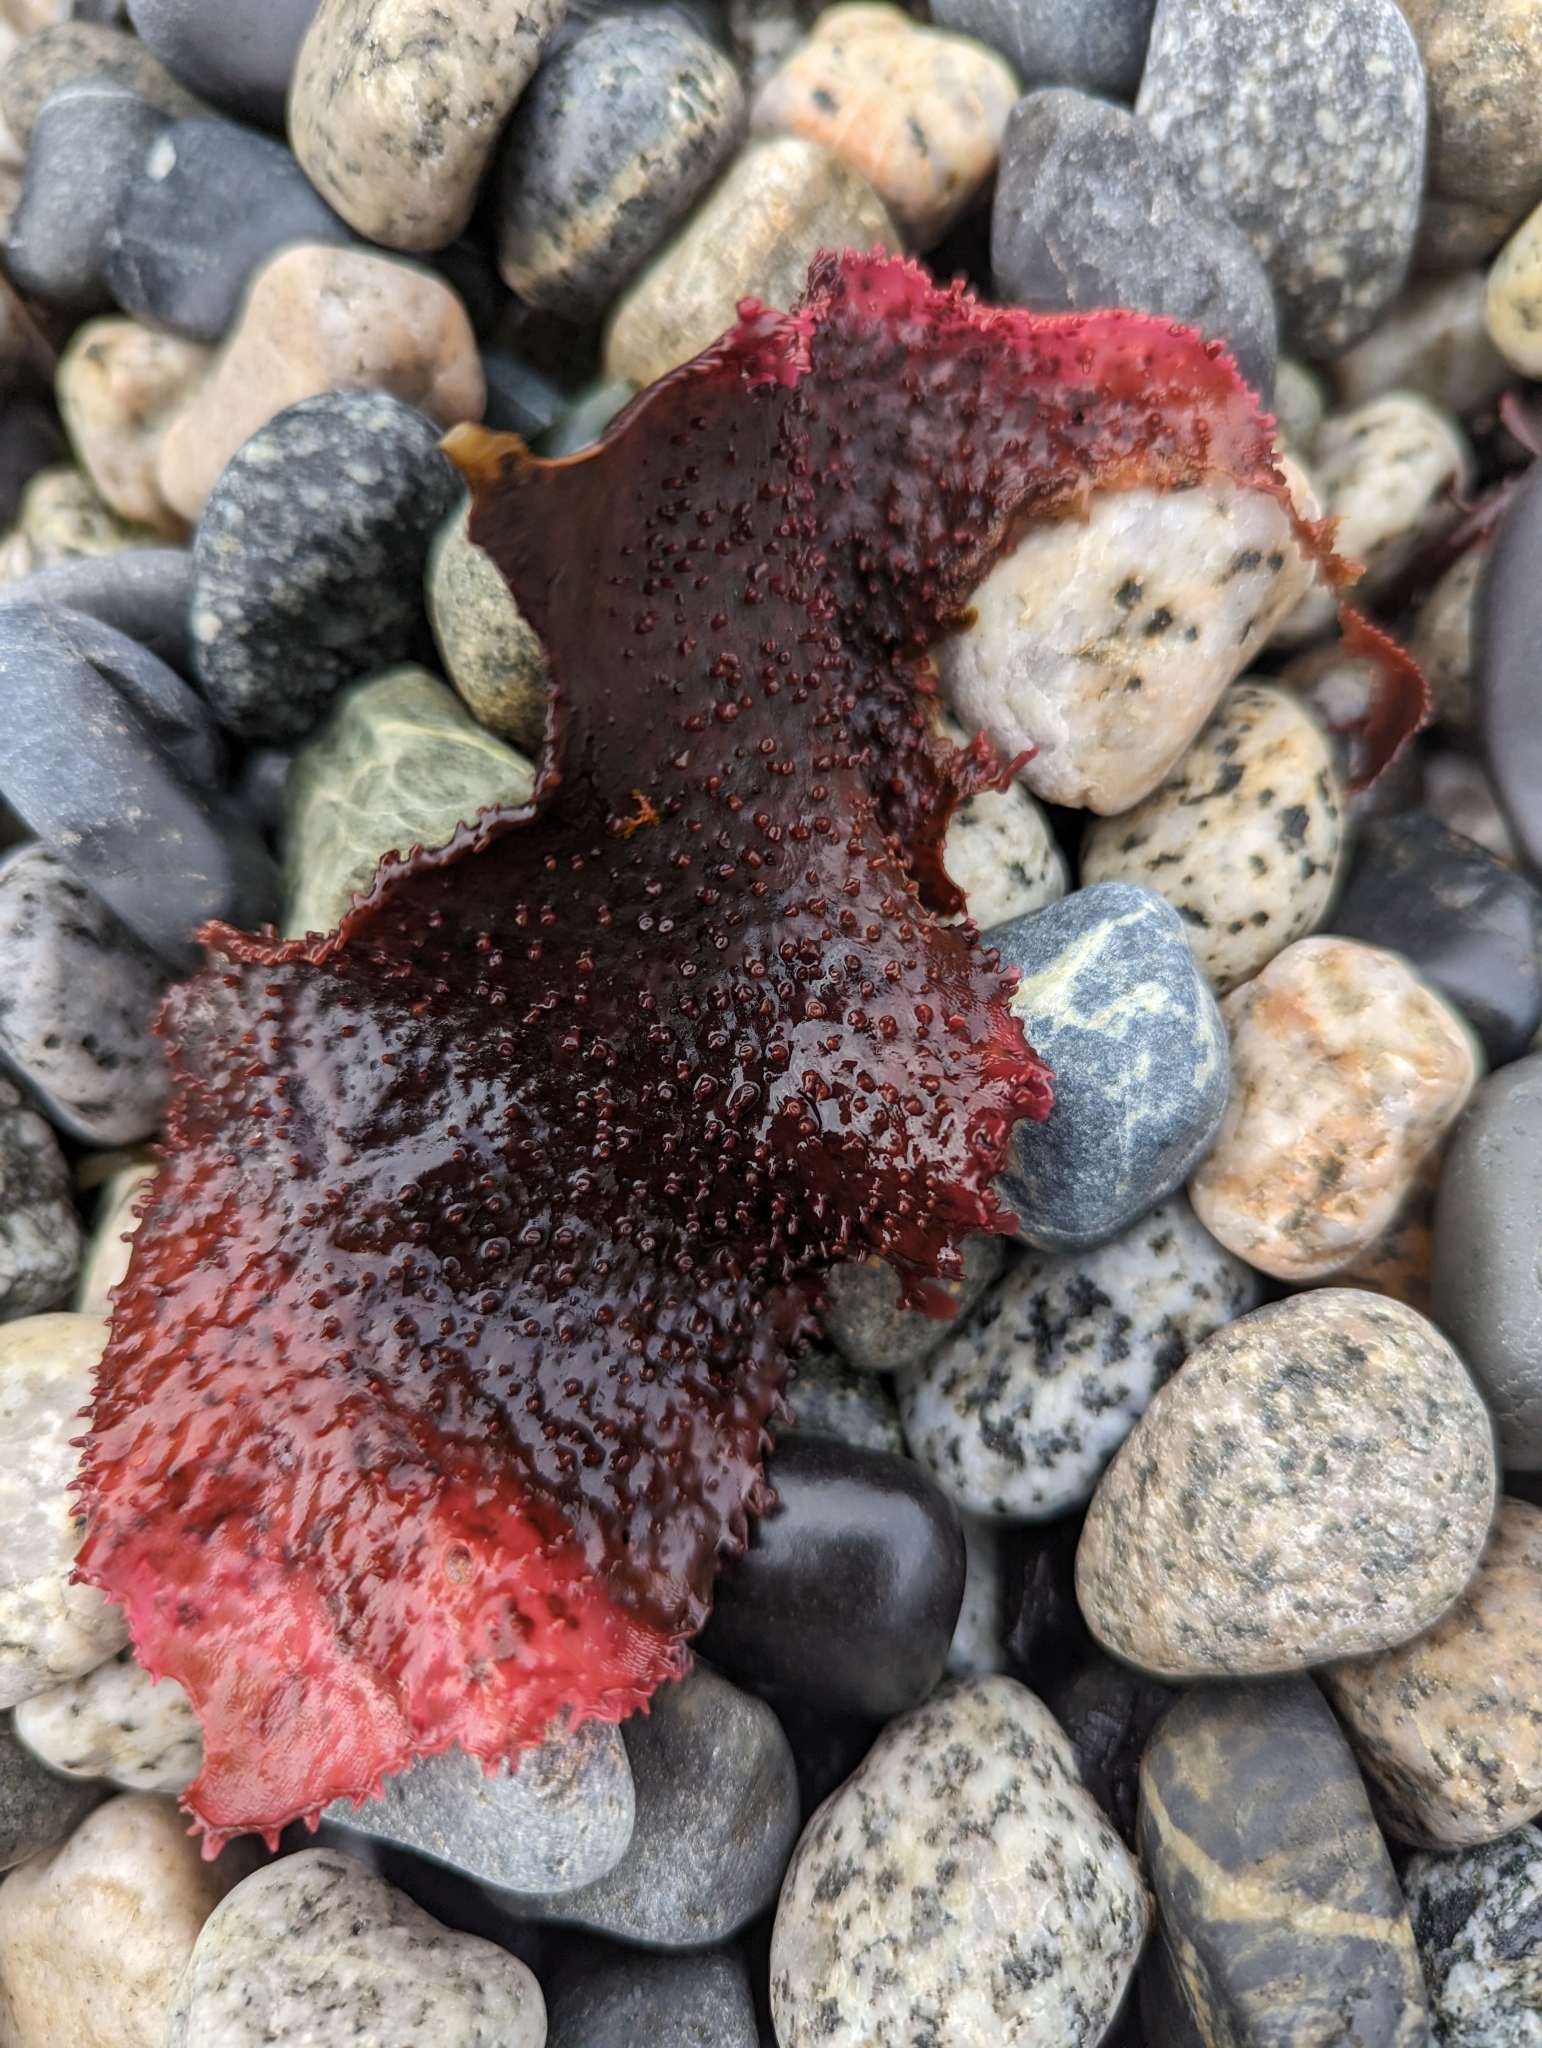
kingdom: Plantae
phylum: Rhodophyta
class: Florideophyceae
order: Gigartinales
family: Gigartinaceae
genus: Chondracanthus
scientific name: Chondracanthus exasperatus
